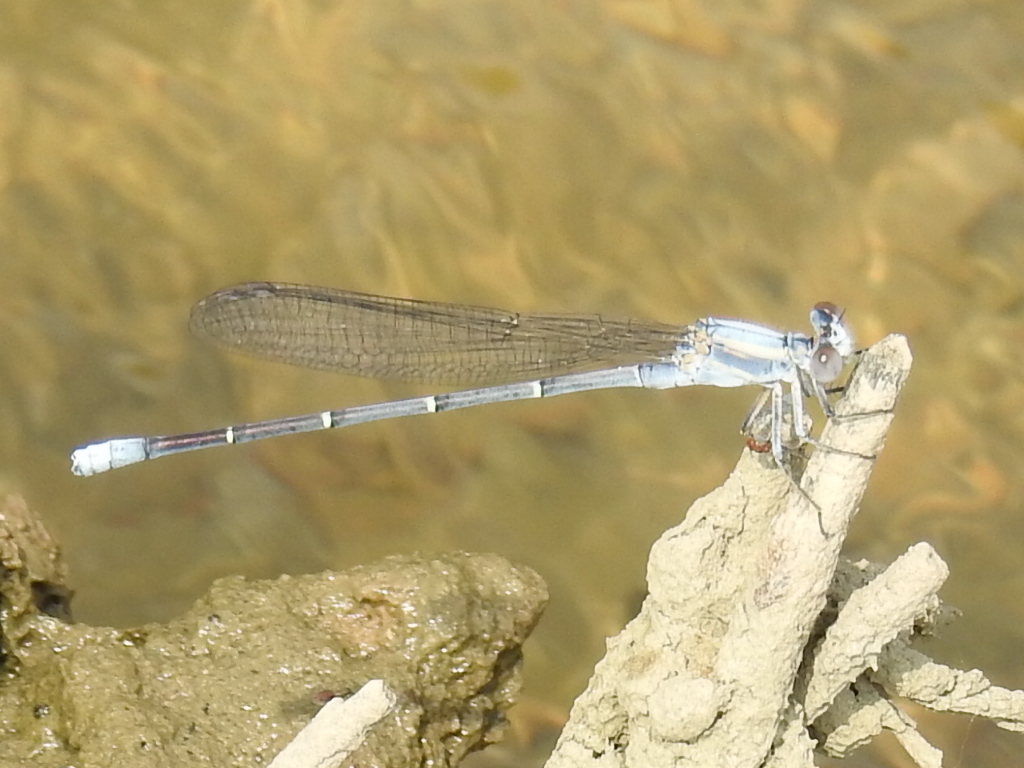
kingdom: Animalia
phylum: Arthropoda
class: Insecta
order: Odonata
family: Coenagrionidae
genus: Argia
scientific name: Argia moesta
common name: Powdered dancer
